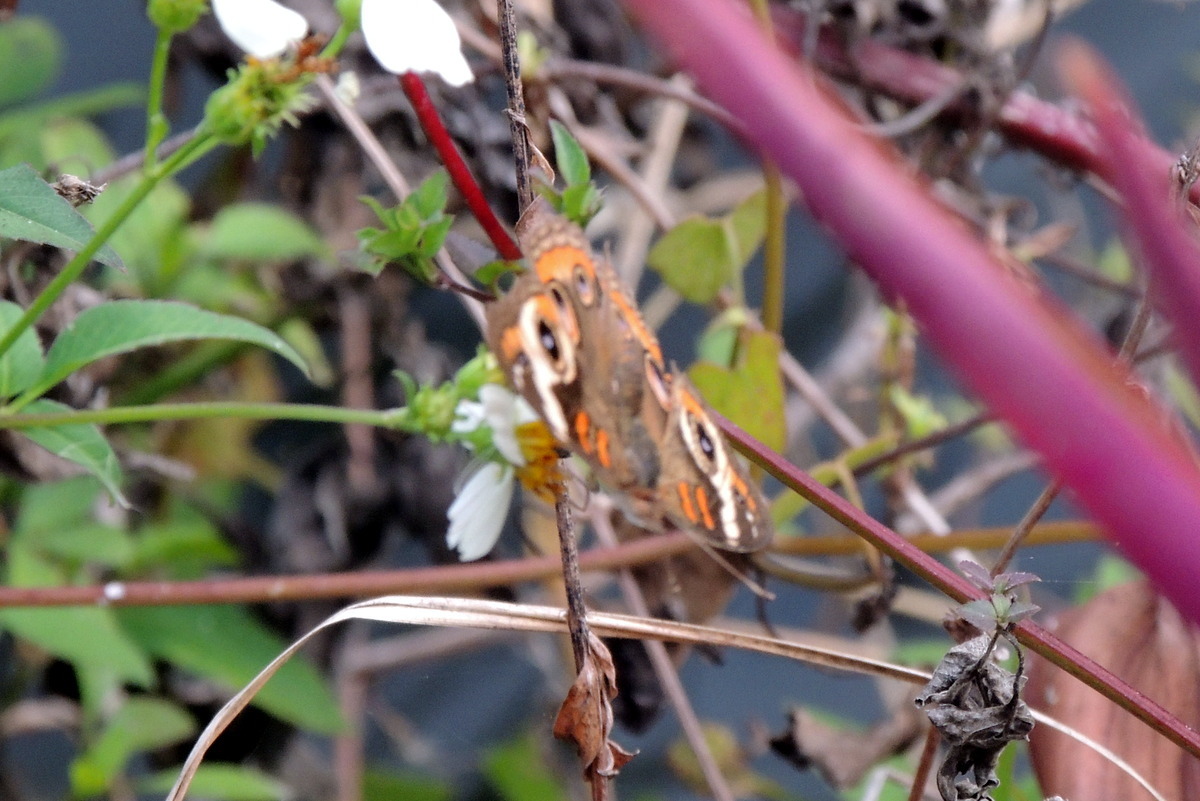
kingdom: Animalia
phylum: Arthropoda
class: Insecta
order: Lepidoptera
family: Nymphalidae
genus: Junonia
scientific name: Junonia coenia
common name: Common buckeye
